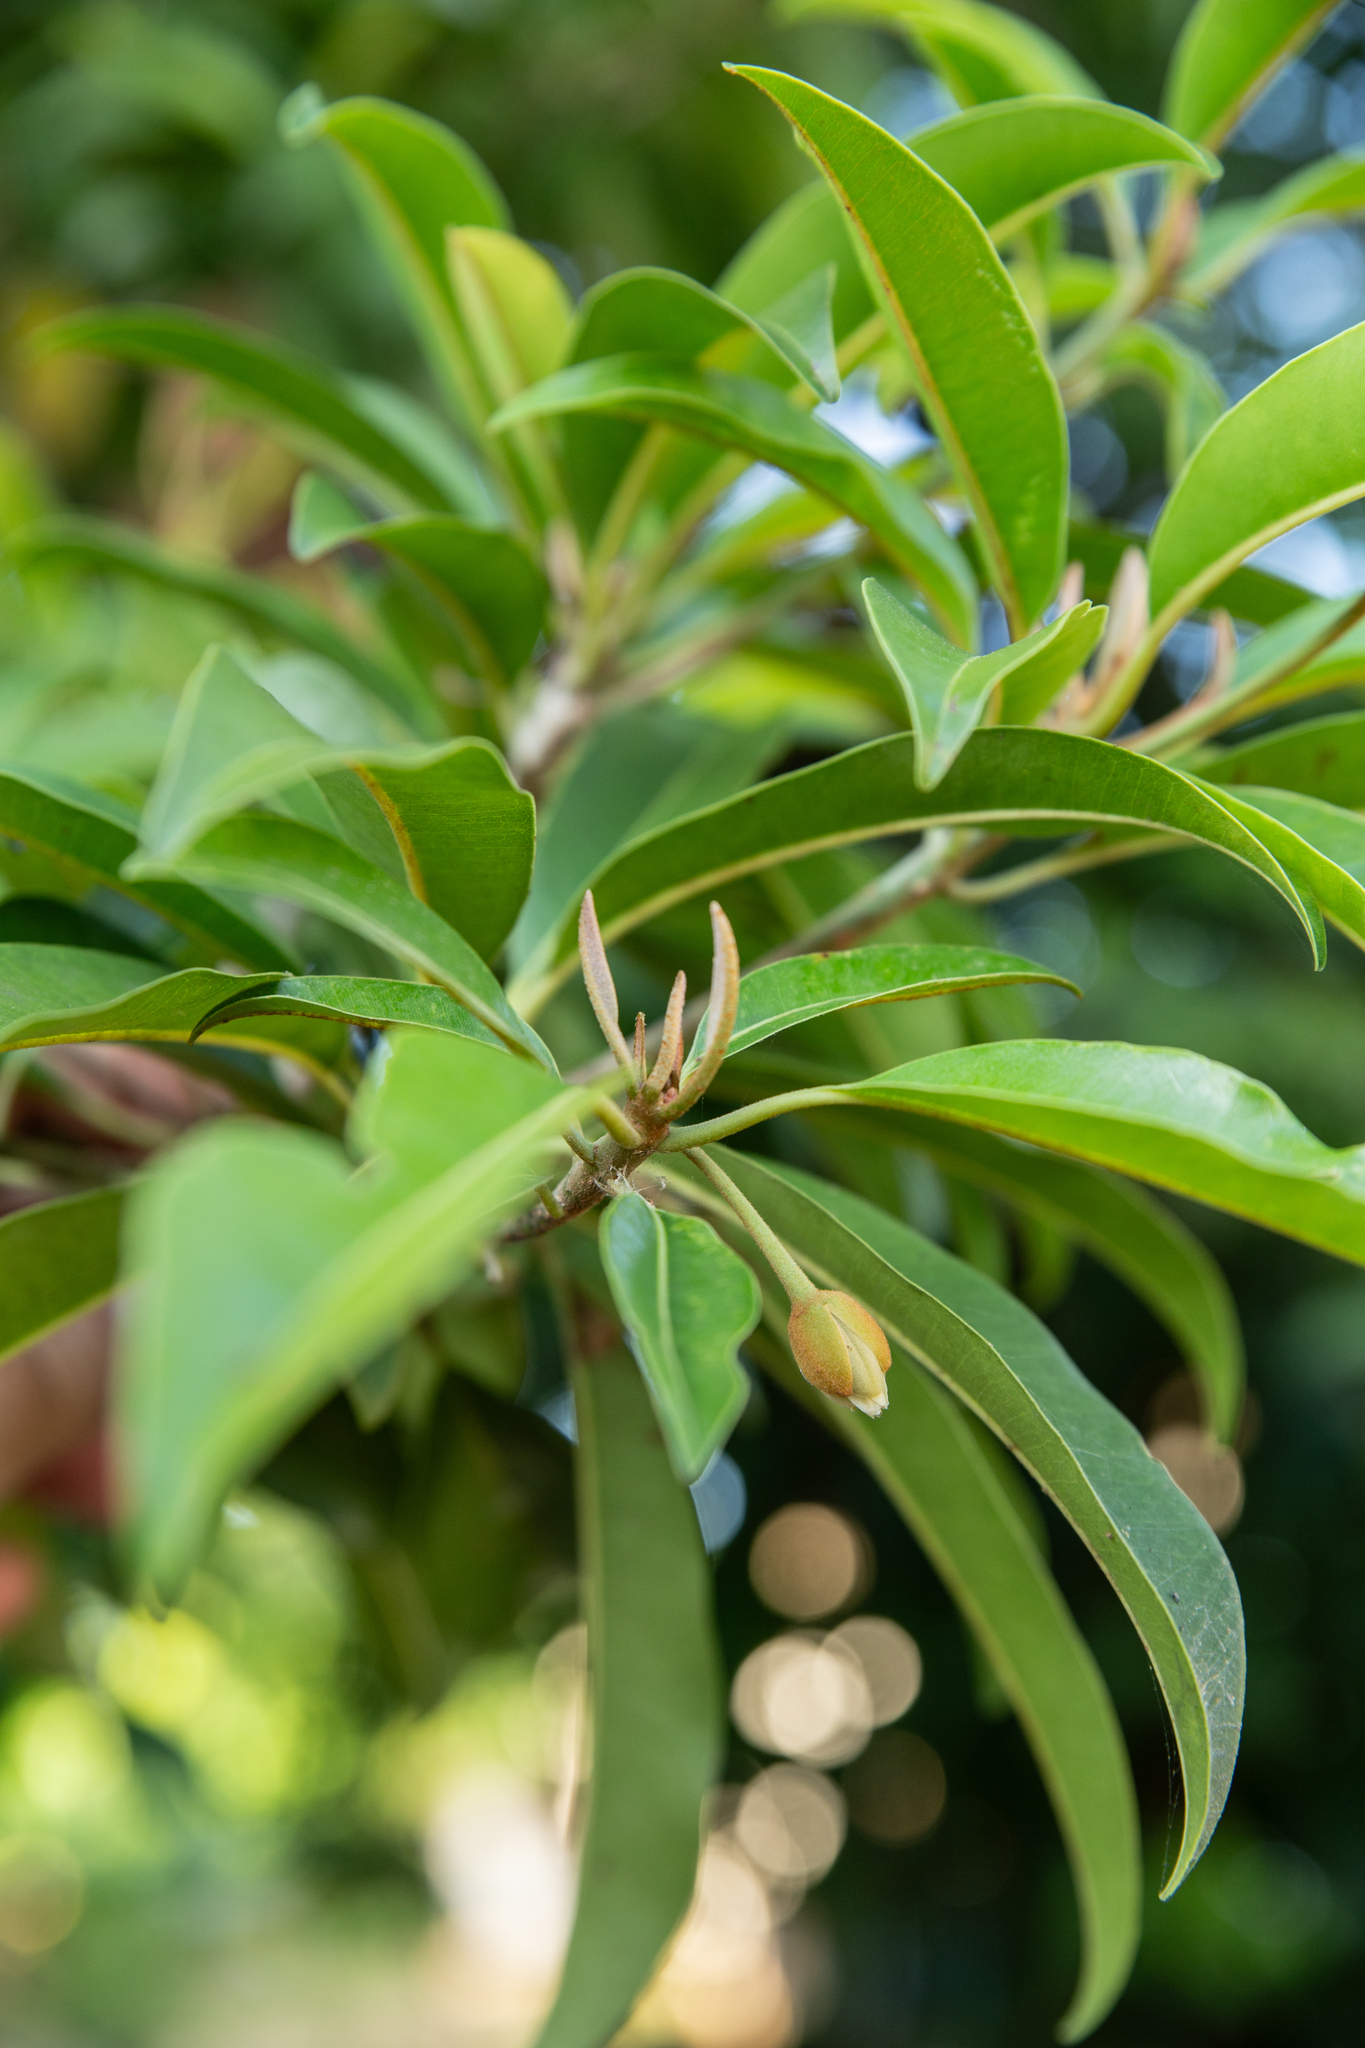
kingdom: Plantae
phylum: Tracheophyta
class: Magnoliopsida
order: Ericales
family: Sapotaceae
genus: Manilkara
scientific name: Manilkara zapota
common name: Sapodilla
